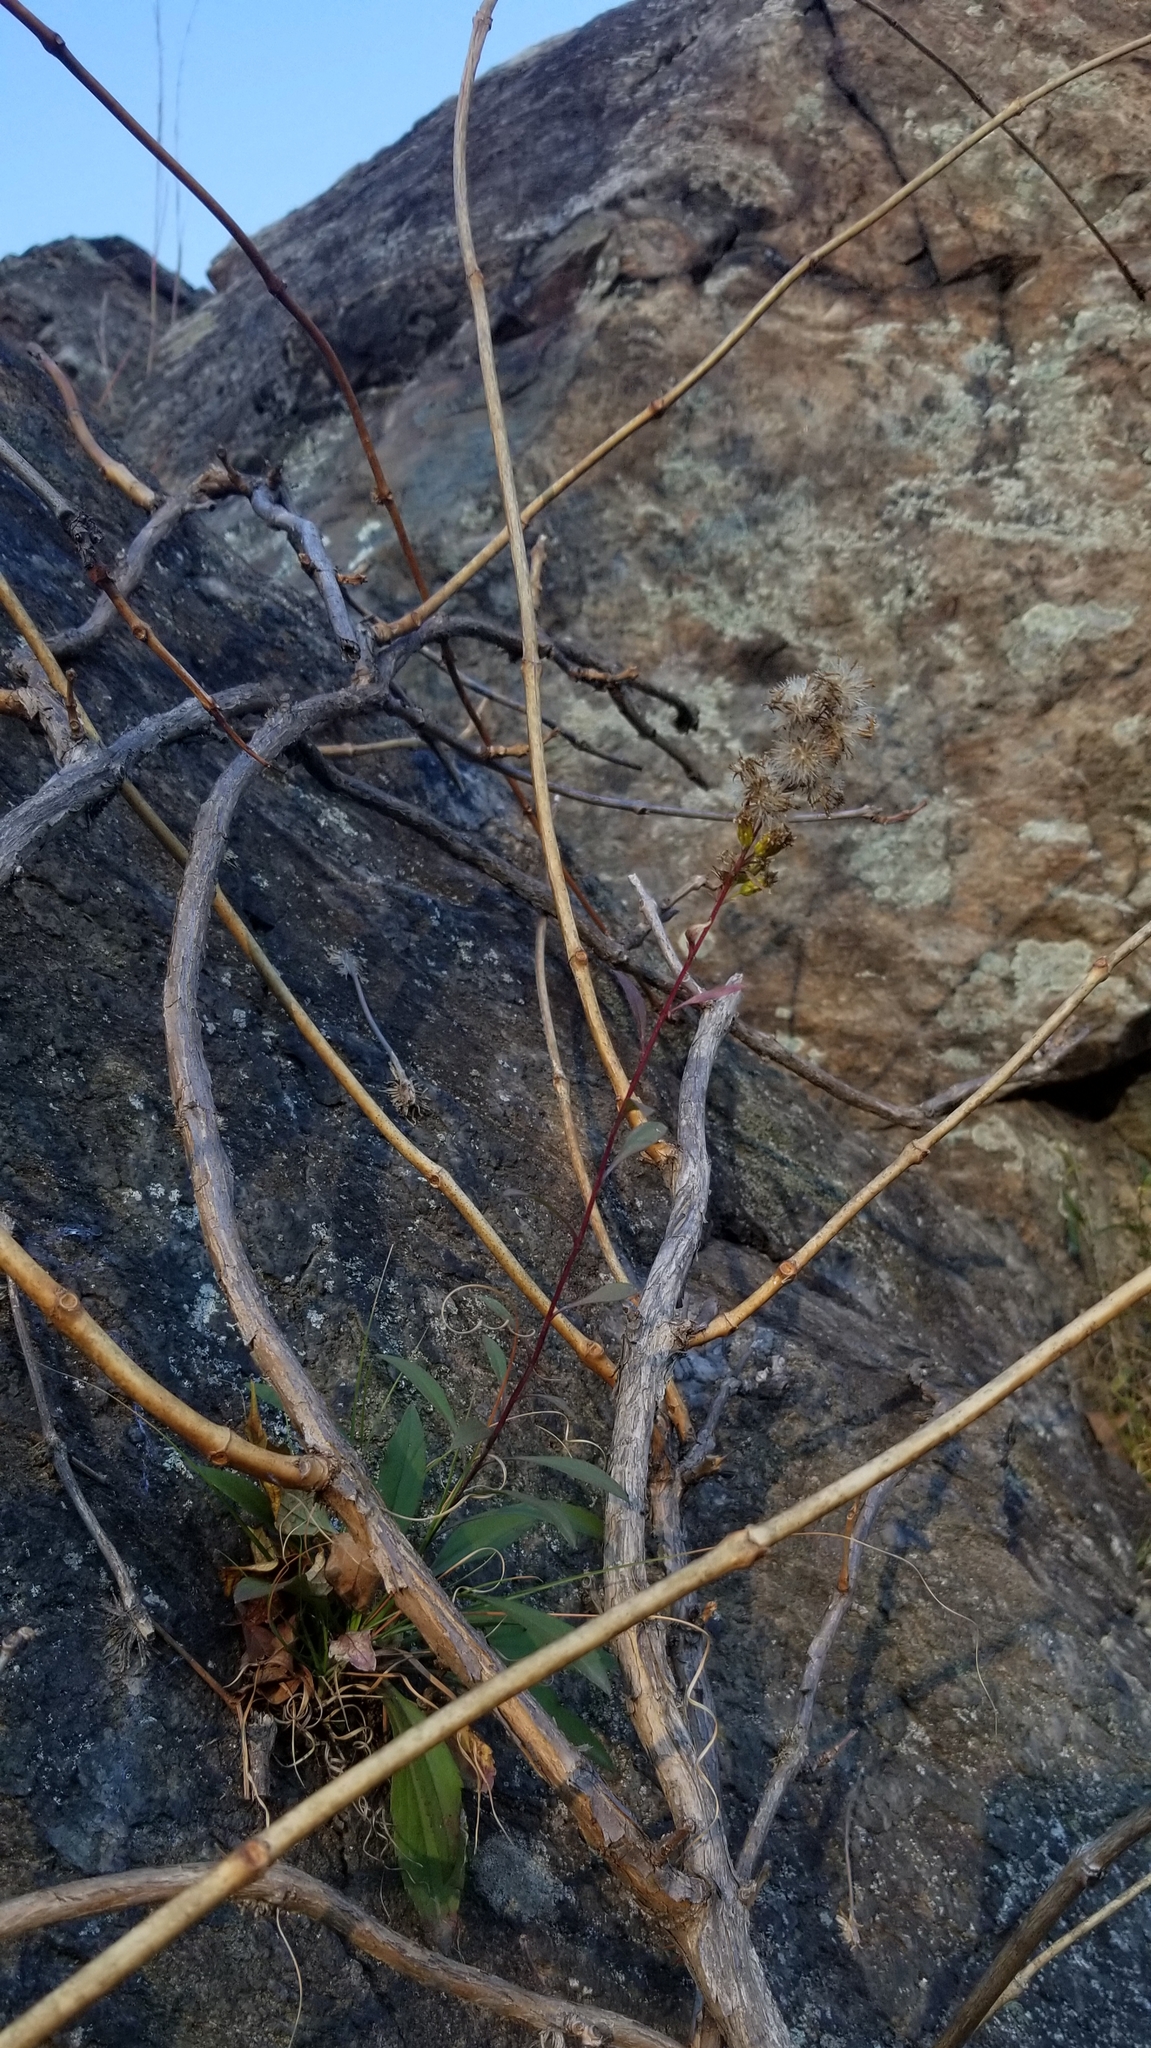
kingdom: Plantae
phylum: Tracheophyta
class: Magnoliopsida
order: Asterales
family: Asteraceae
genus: Solidago
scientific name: Solidago racemosa
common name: Lake ontario goldenrod
